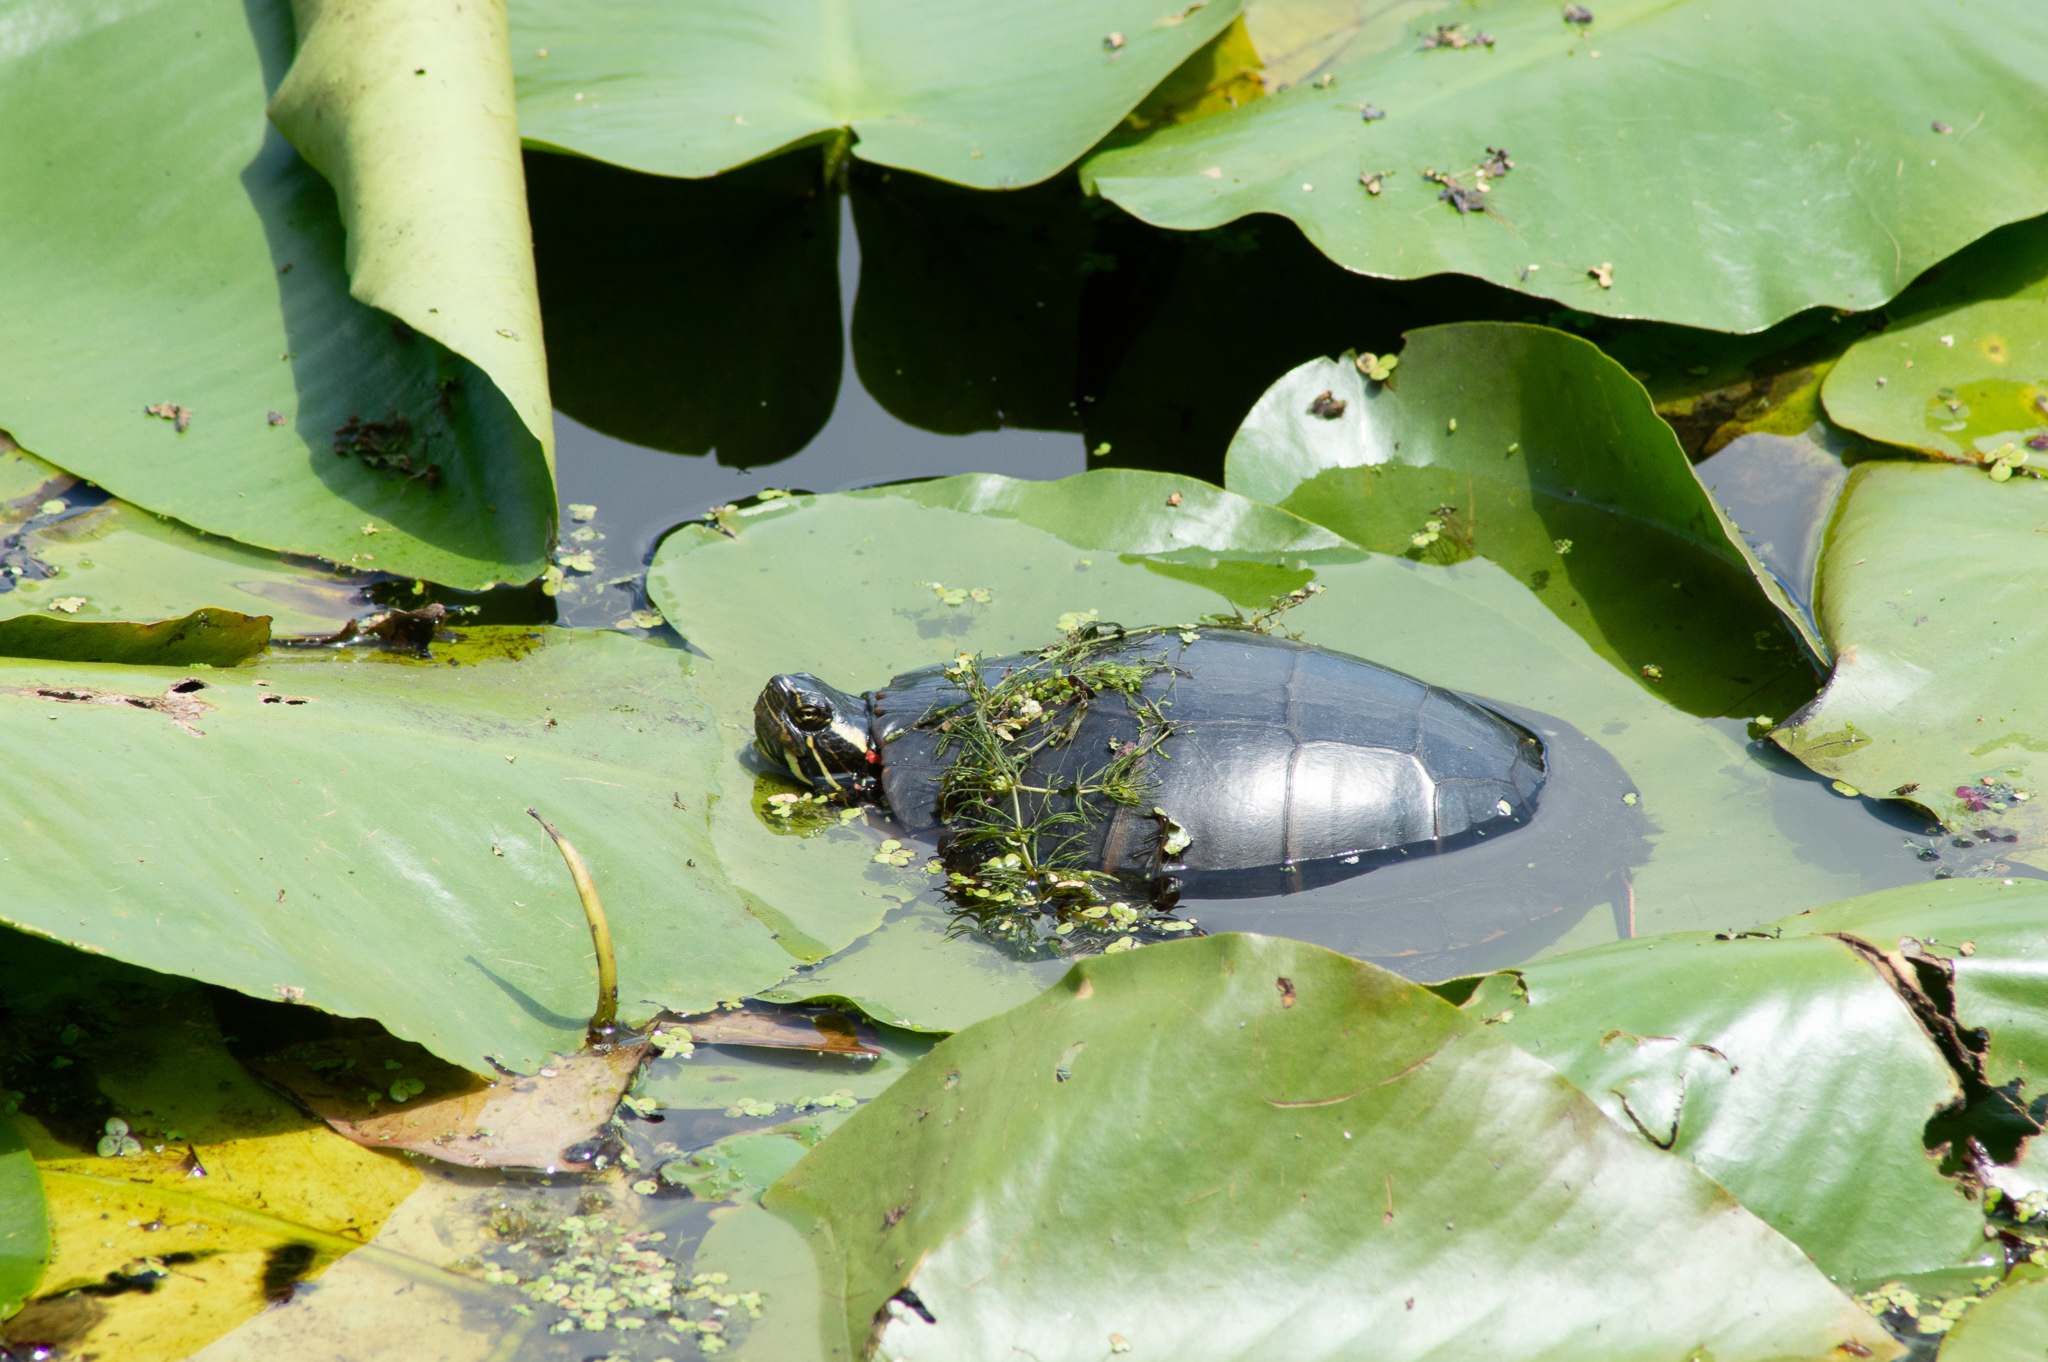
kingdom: Animalia
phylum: Chordata
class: Testudines
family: Emydidae
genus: Chrysemys
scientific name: Chrysemys picta
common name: Painted turtle
